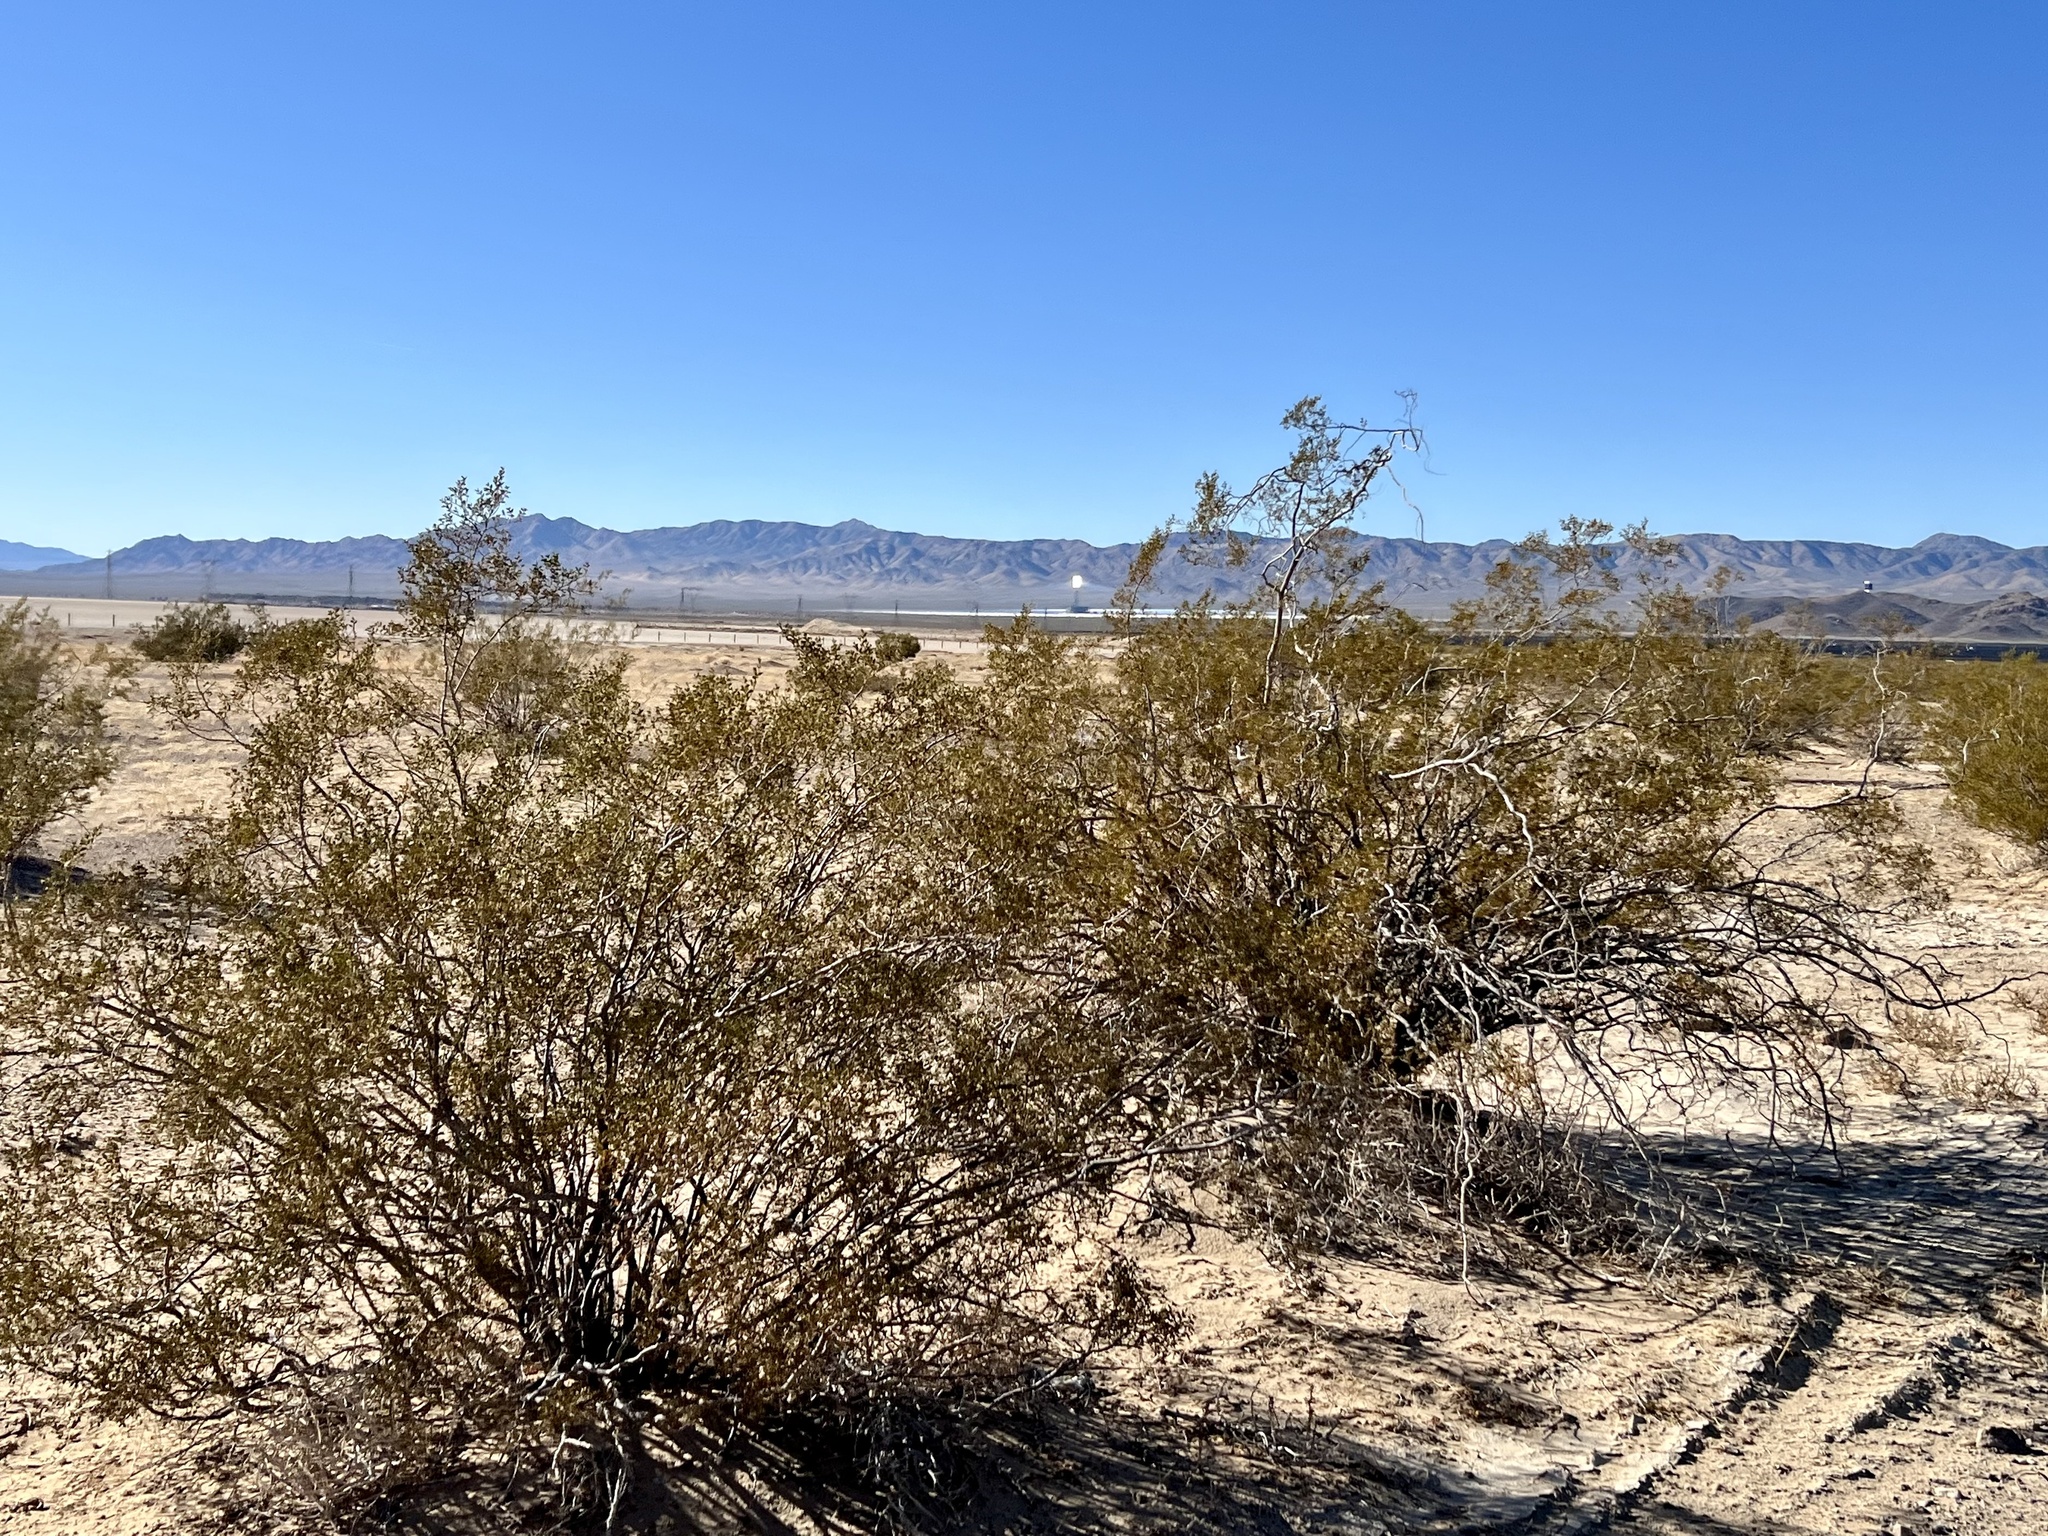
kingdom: Plantae
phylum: Tracheophyta
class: Magnoliopsida
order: Zygophyllales
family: Zygophyllaceae
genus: Larrea
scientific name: Larrea tridentata
